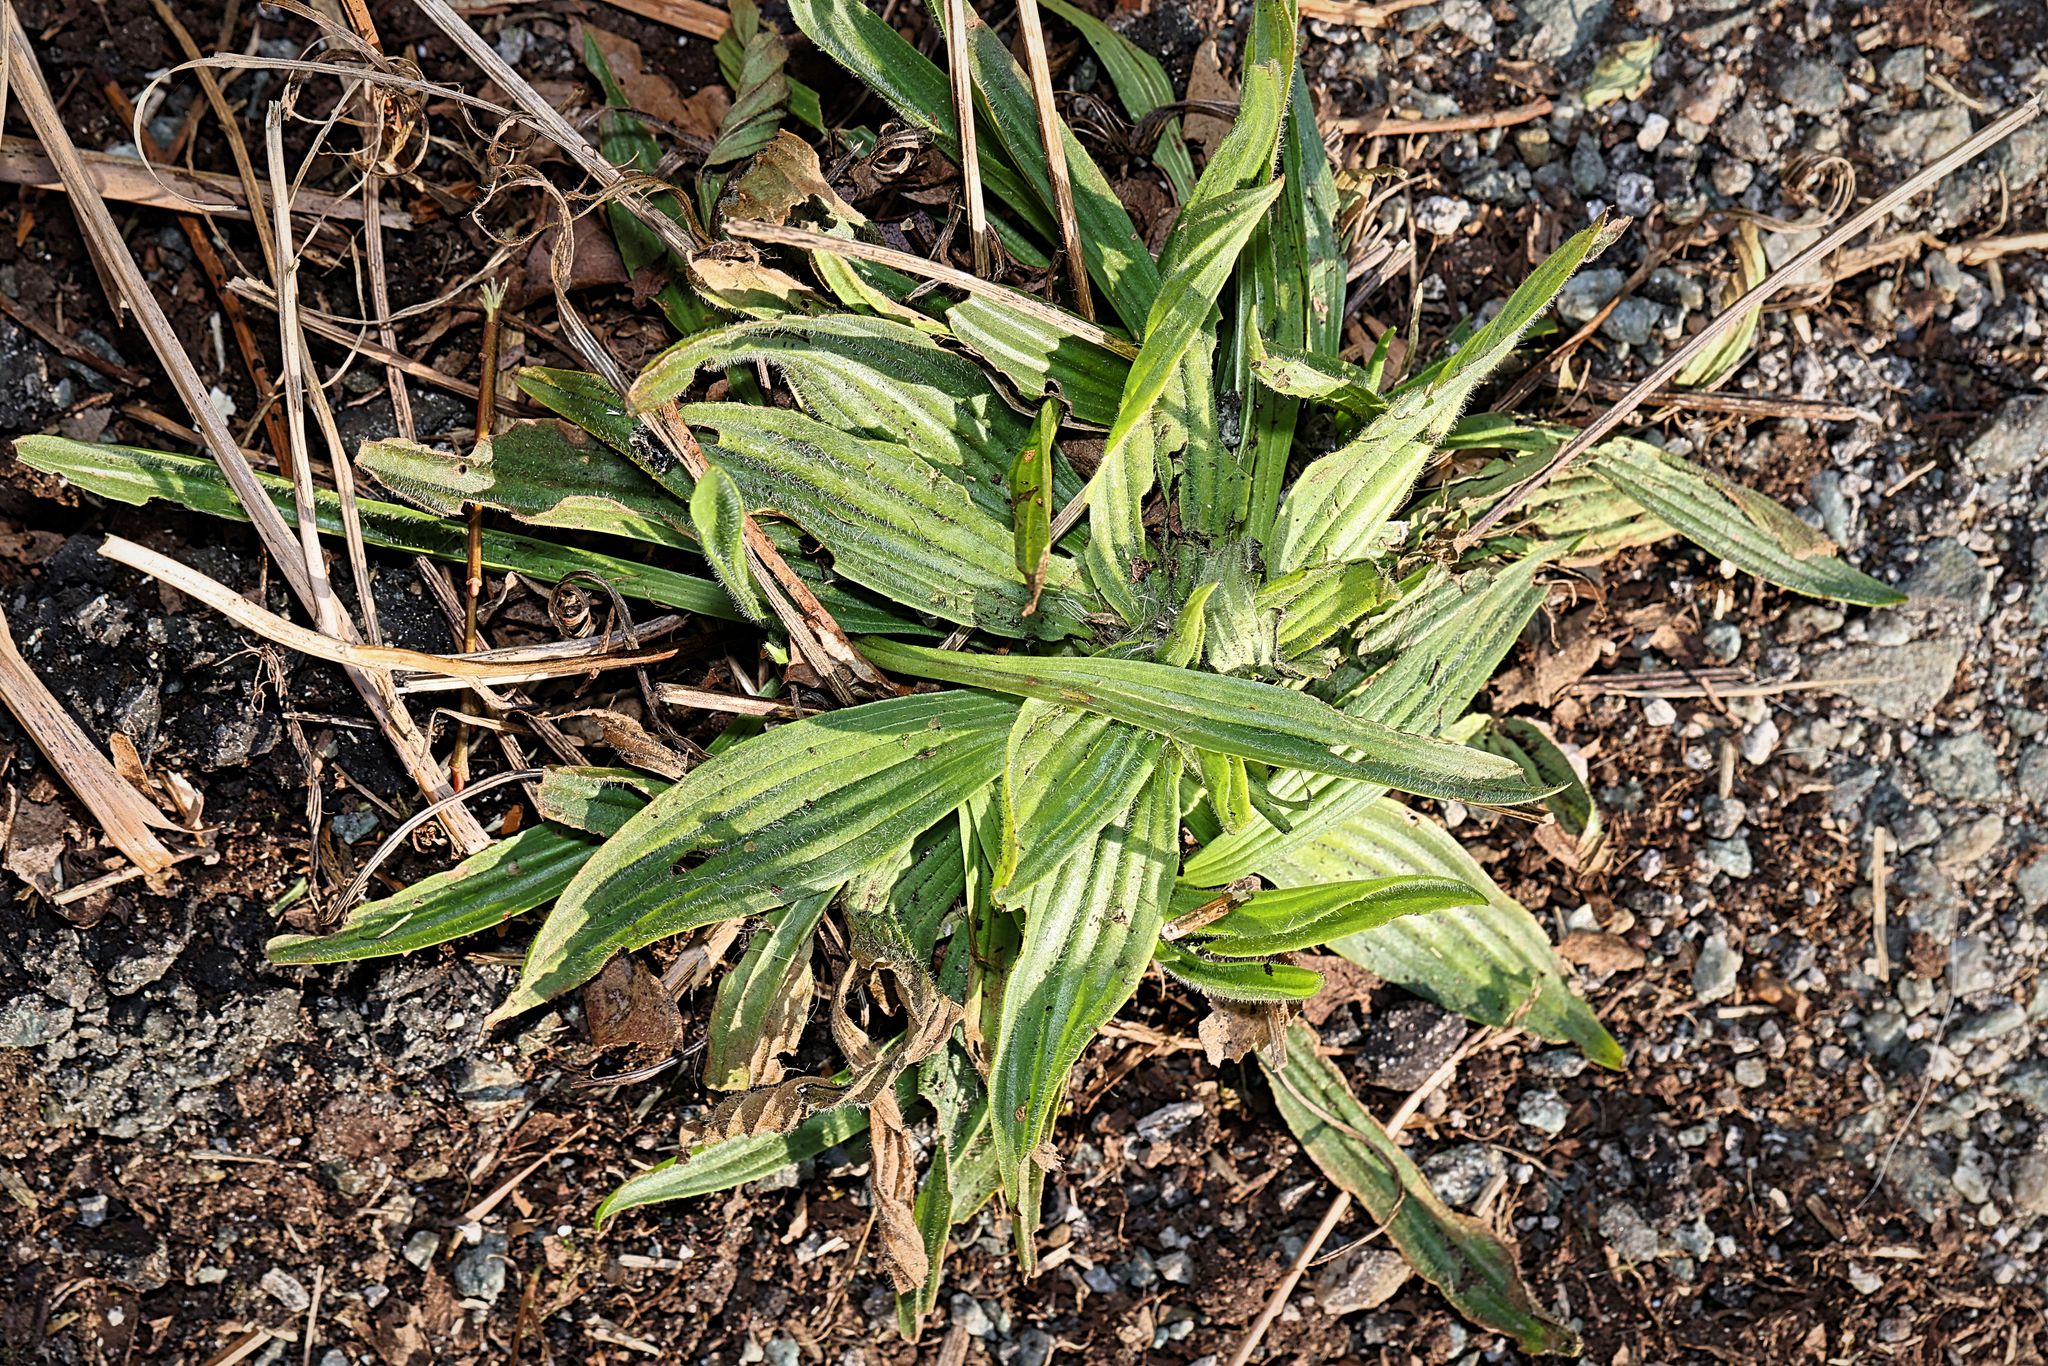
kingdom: Plantae
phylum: Tracheophyta
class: Magnoliopsida
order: Lamiales
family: Plantaginaceae
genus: Plantago
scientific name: Plantago lanceolata
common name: Ribwort plantain
